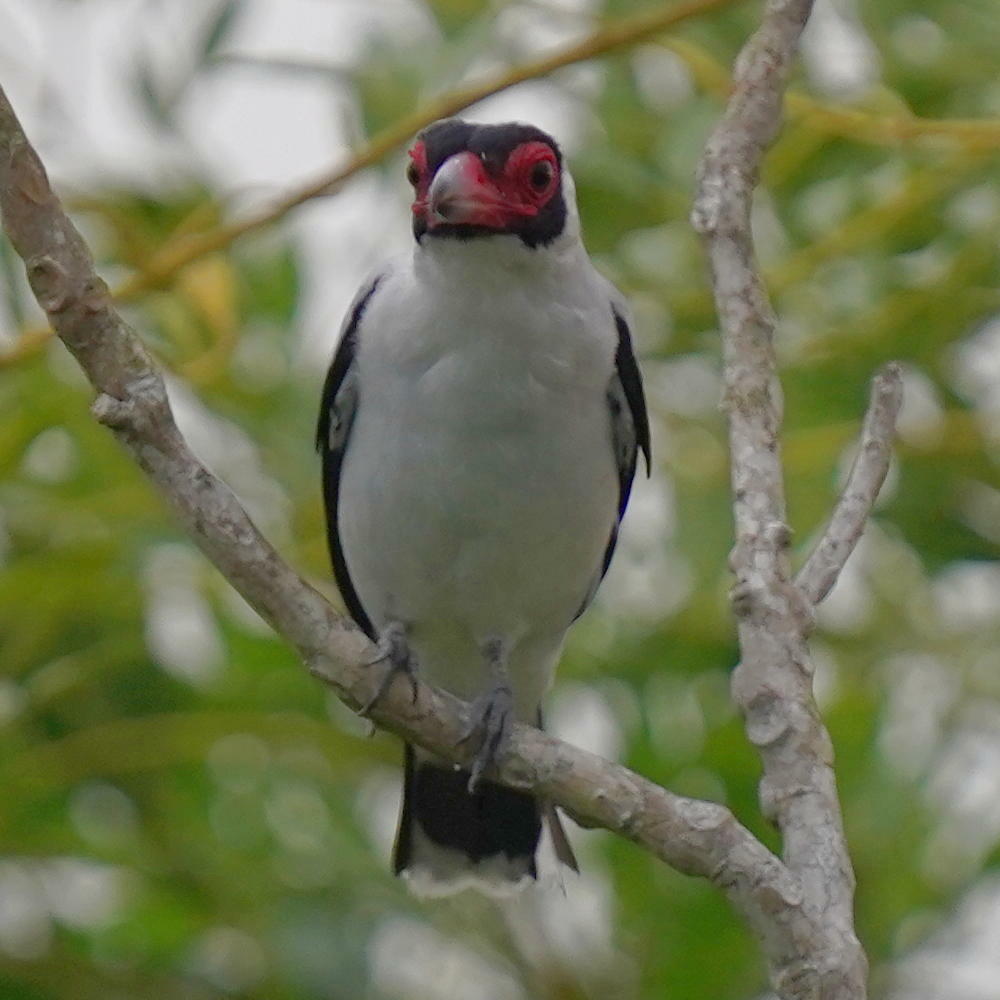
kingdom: Animalia
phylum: Chordata
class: Aves
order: Passeriformes
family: Cotingidae
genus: Tityra
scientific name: Tityra semifasciata
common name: Masked tityra
